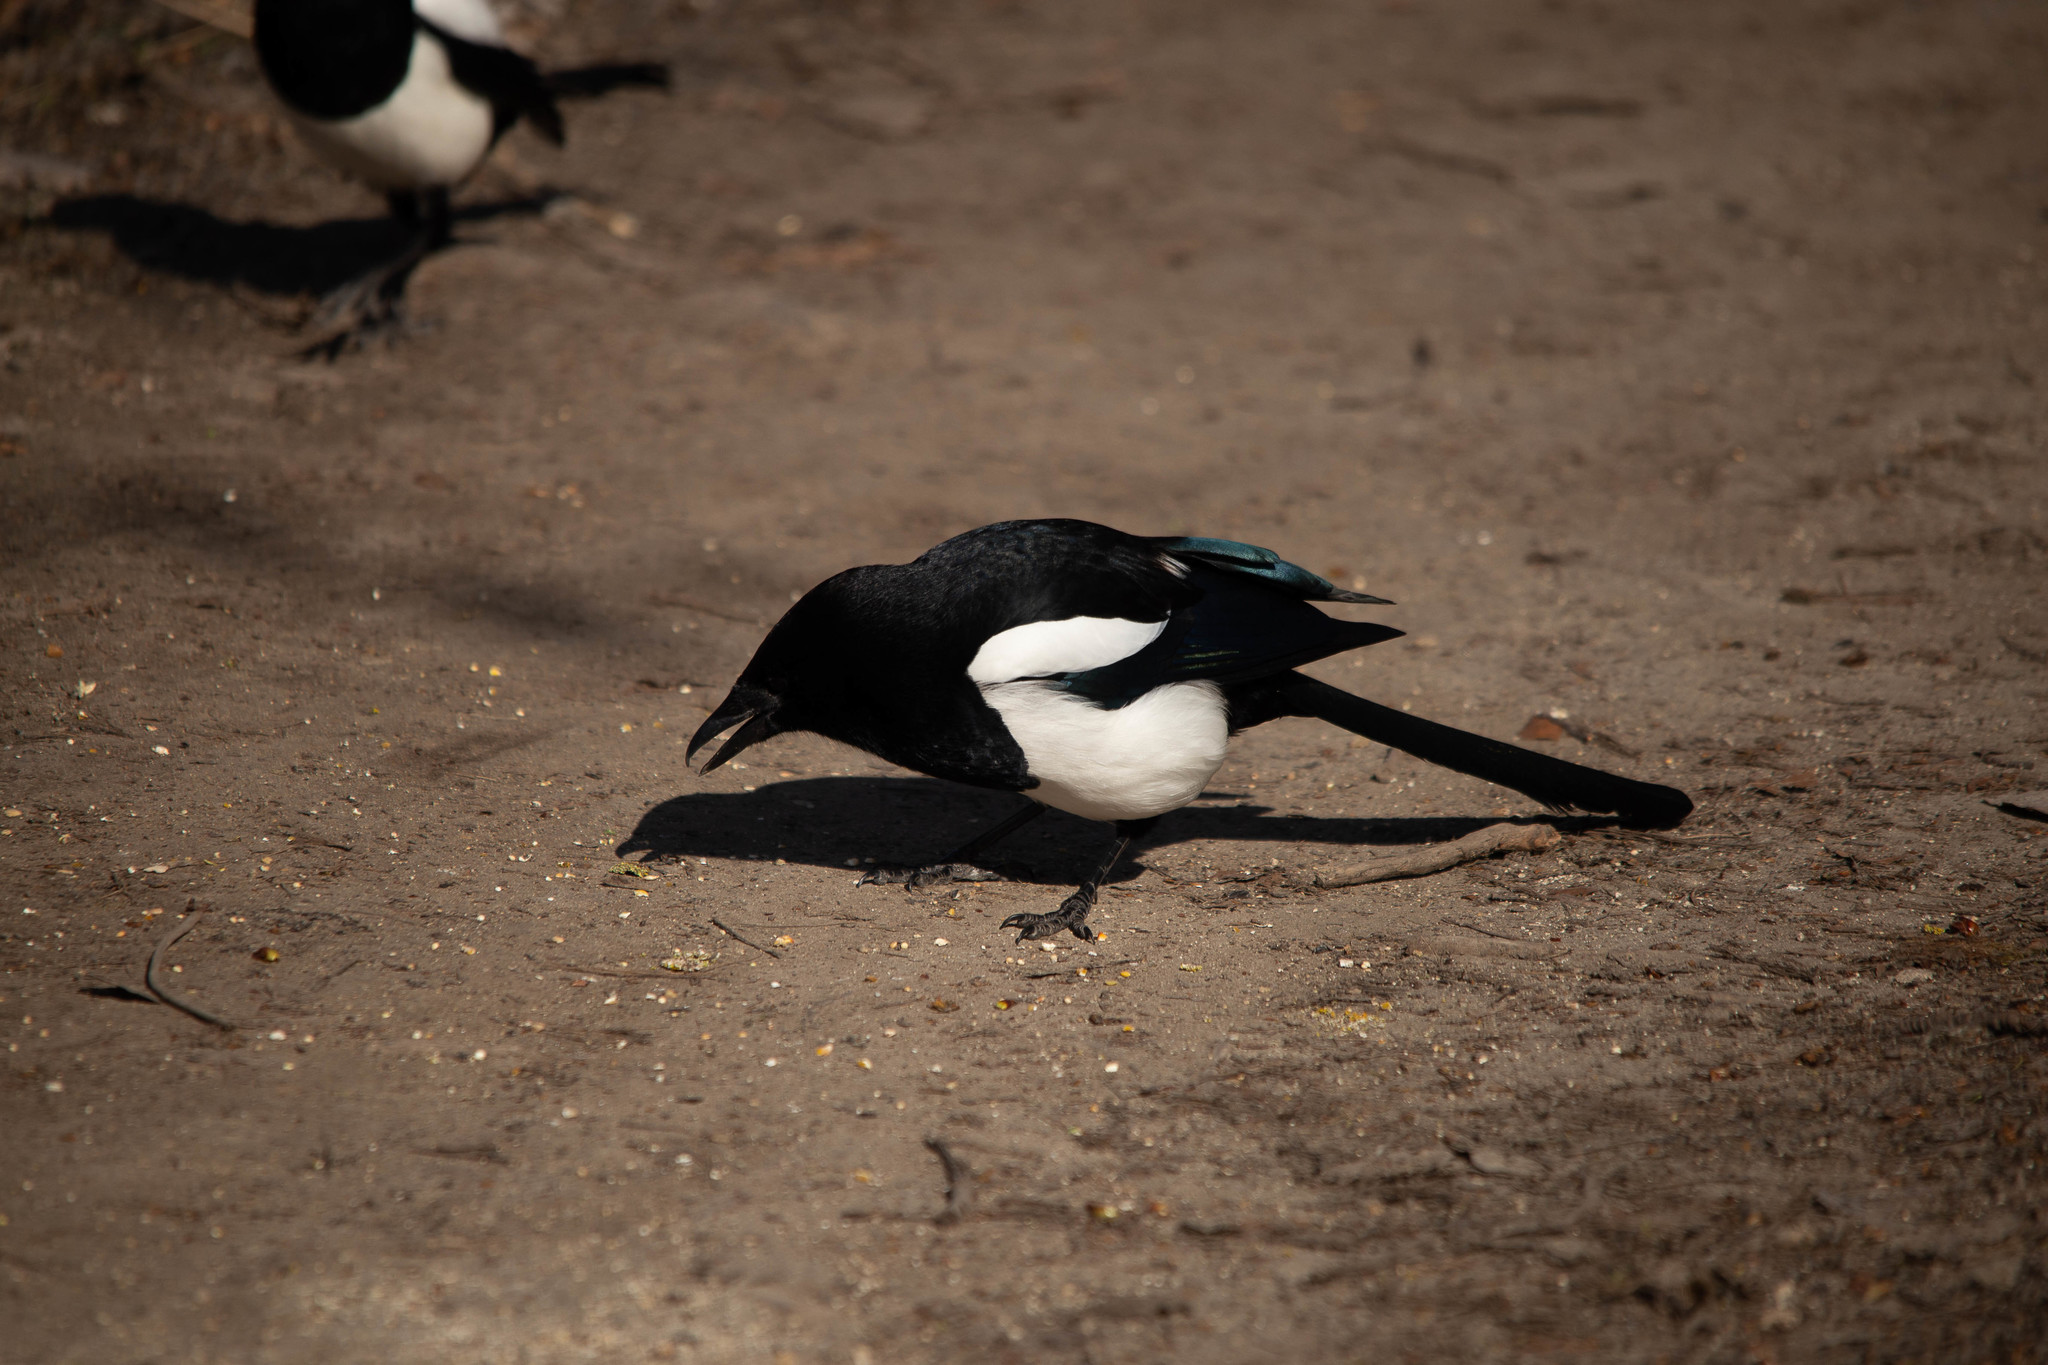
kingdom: Animalia
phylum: Chordata
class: Aves
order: Passeriformes
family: Corvidae
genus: Pica
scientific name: Pica pica
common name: Eurasian magpie
